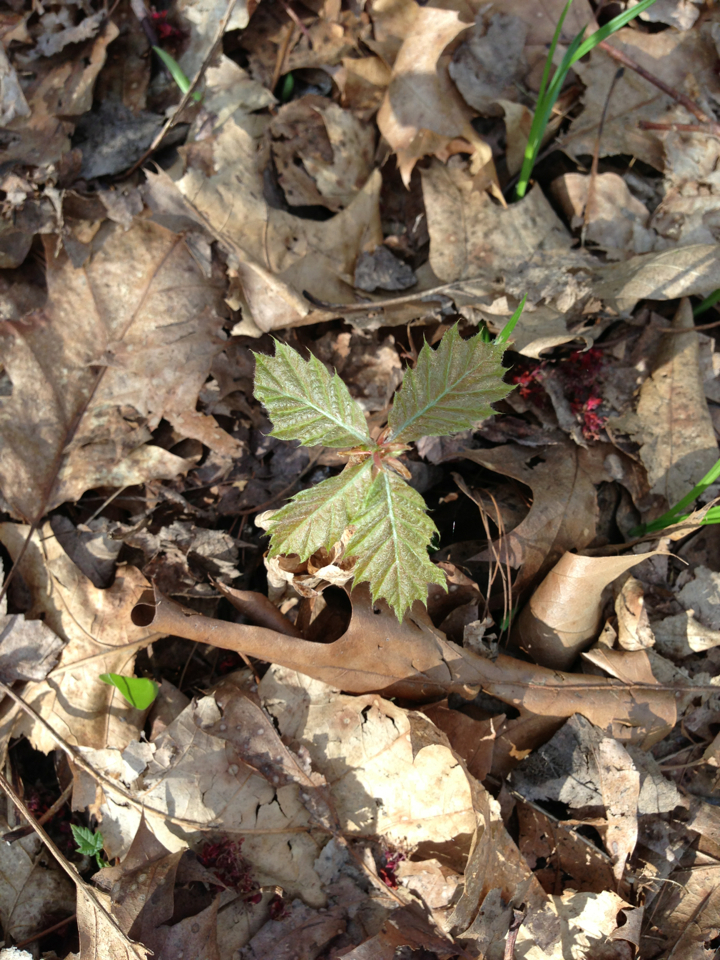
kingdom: Plantae
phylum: Tracheophyta
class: Magnoliopsida
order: Fagales
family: Fagaceae
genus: Quercus
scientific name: Quercus rubra
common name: Red oak
